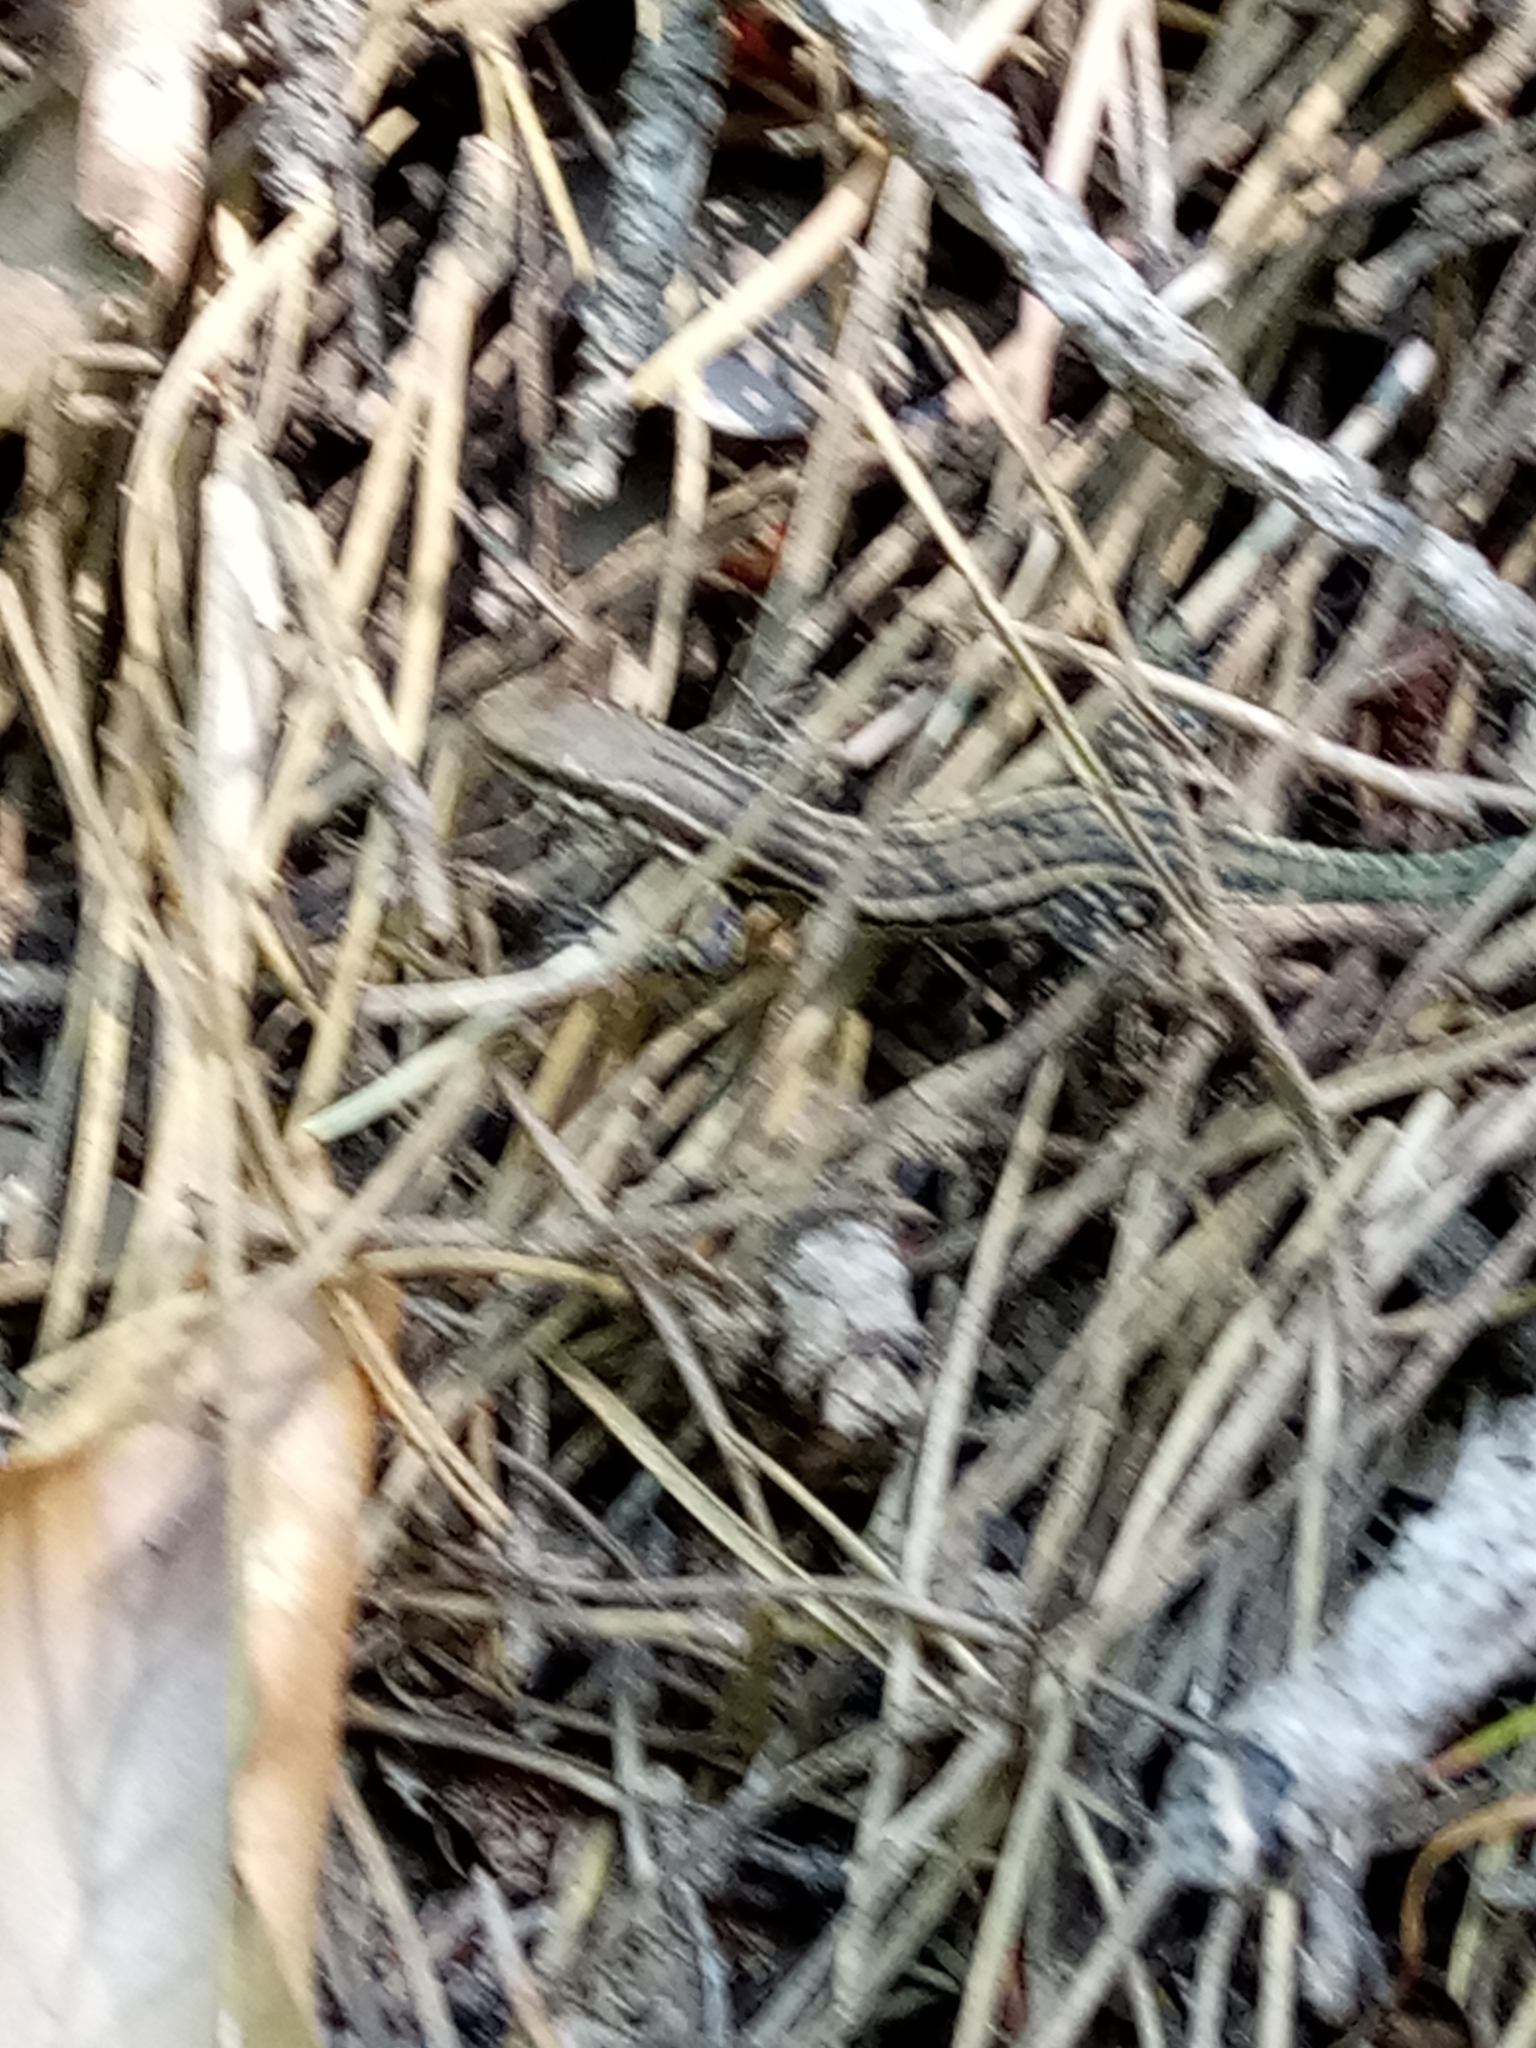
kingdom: Animalia
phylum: Chordata
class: Squamata
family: Lacertidae
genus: Podarcis
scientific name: Podarcis tiliguerta
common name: Tyrrhenian wall lizard
